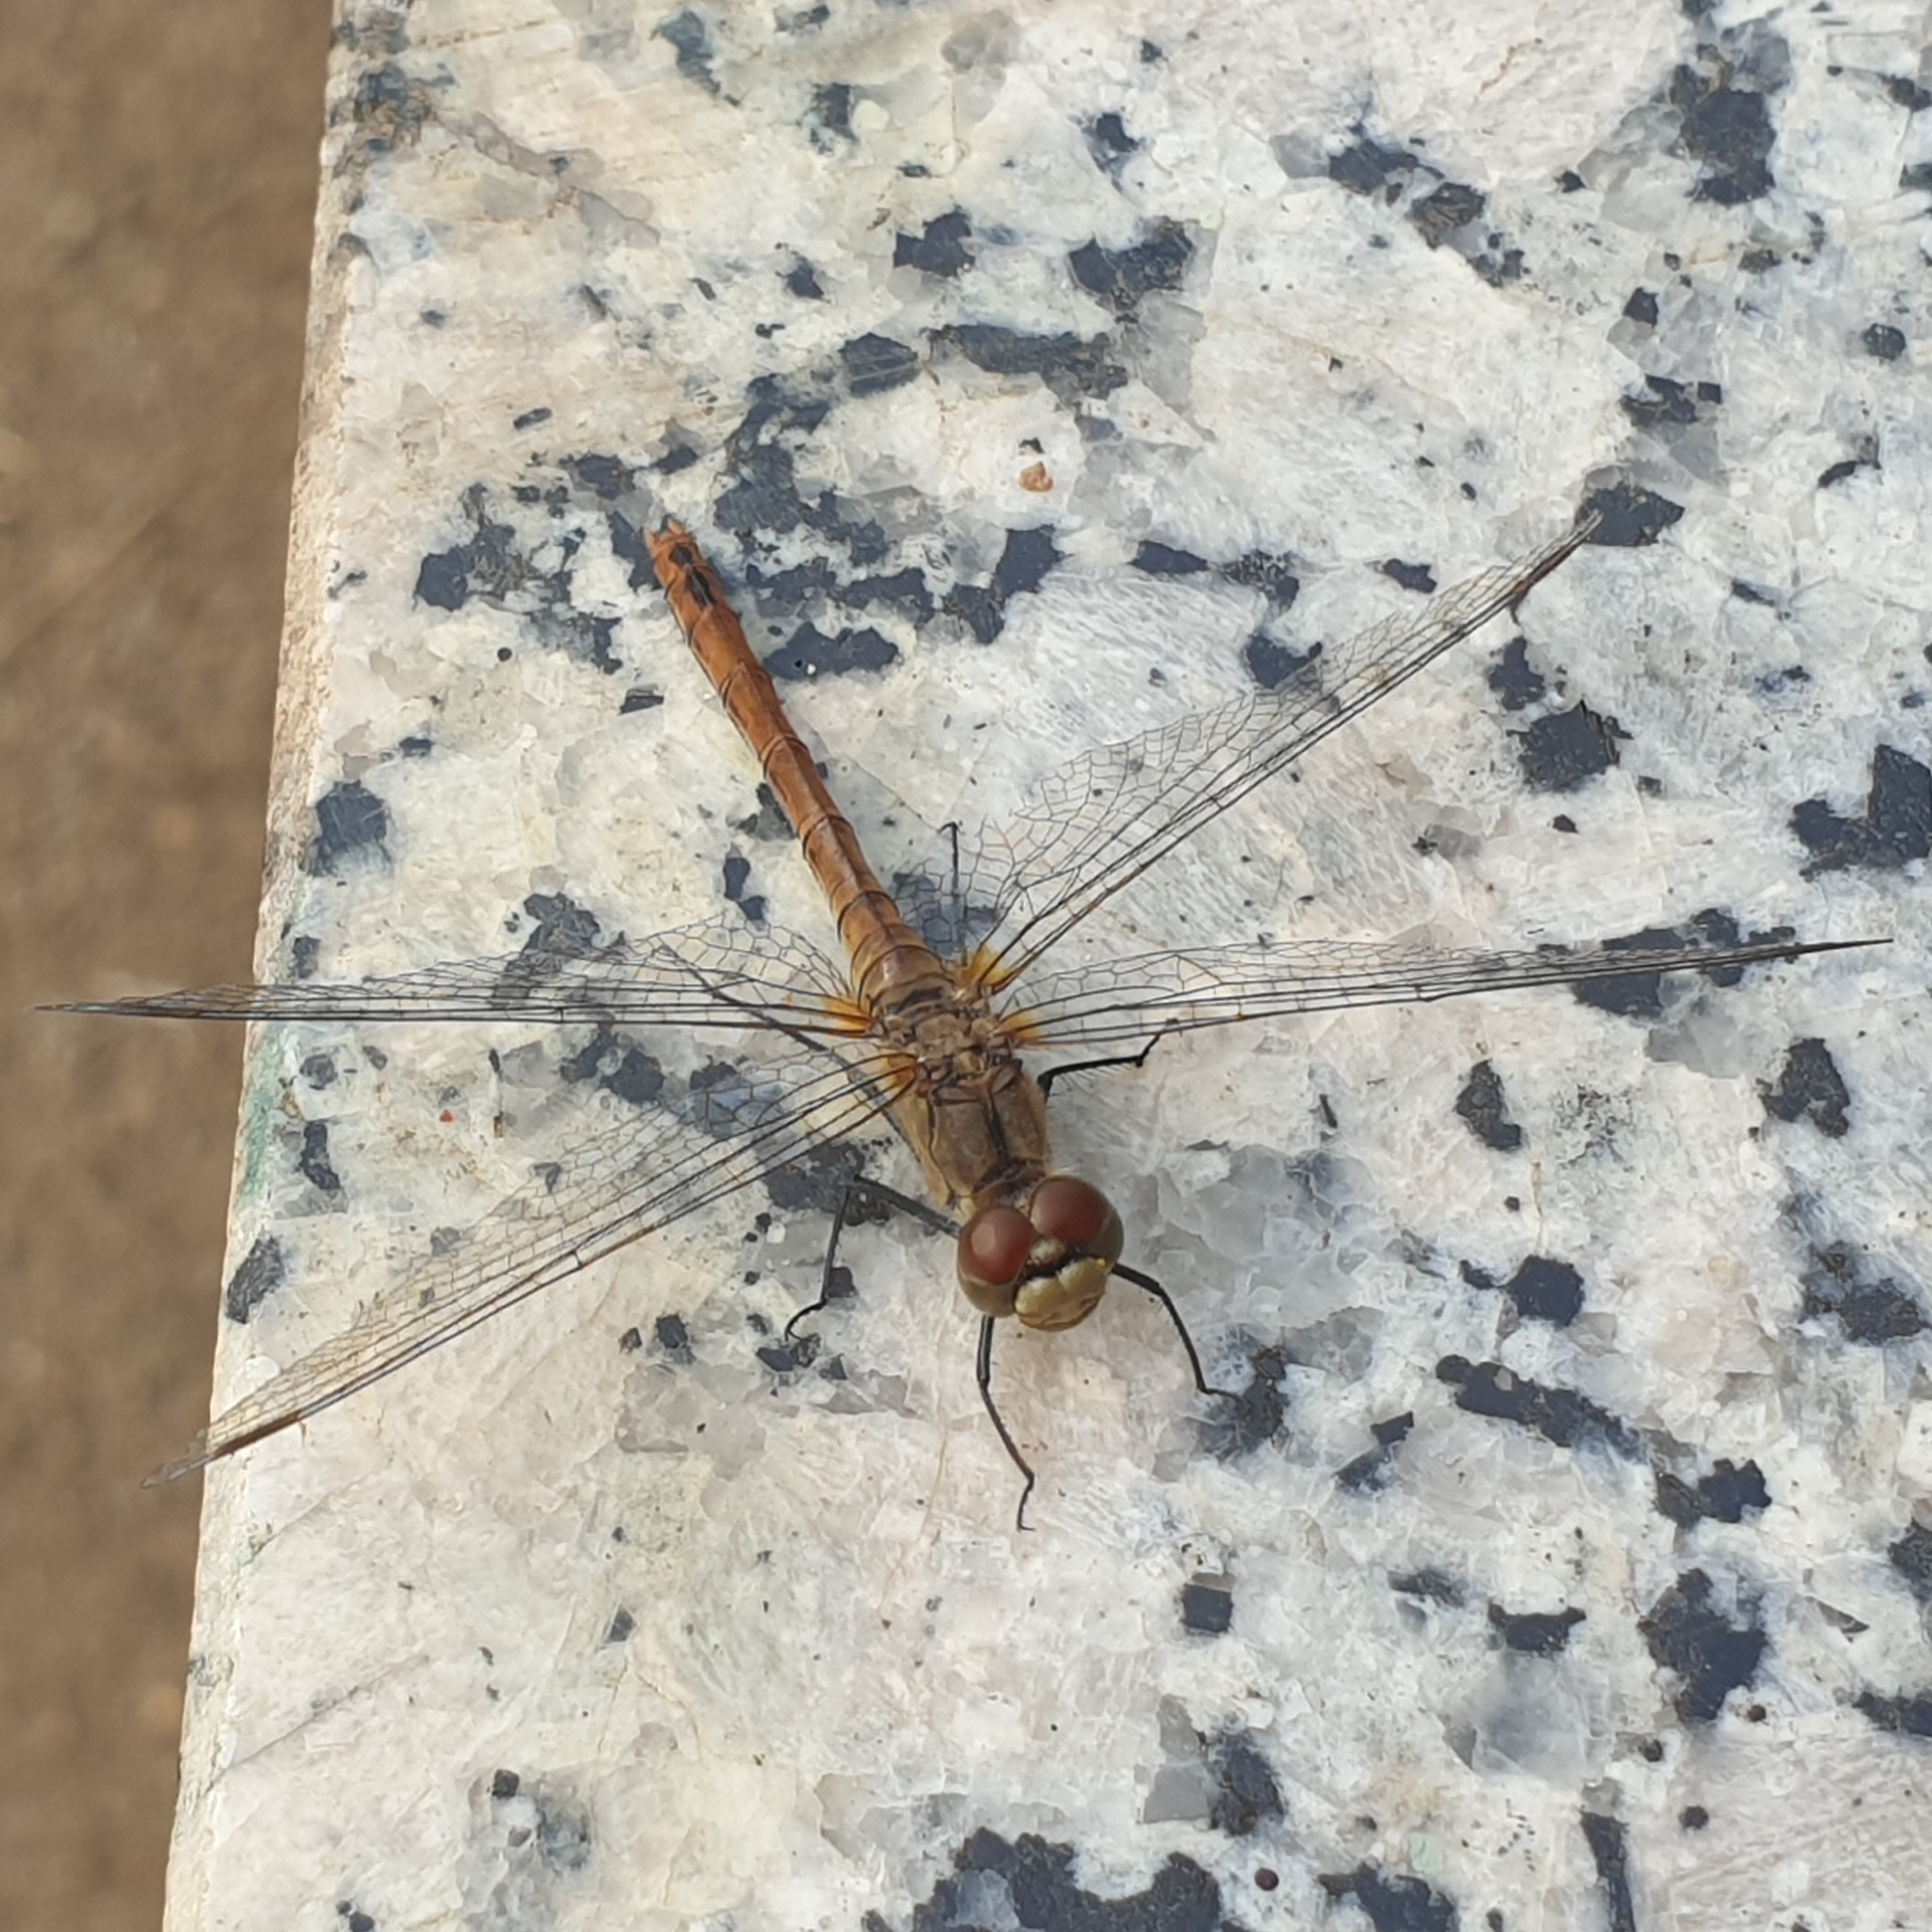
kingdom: Animalia
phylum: Arthropoda
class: Insecta
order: Odonata
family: Libellulidae
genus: Sympetrum
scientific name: Sympetrum sanguineum
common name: Ruddy darter
